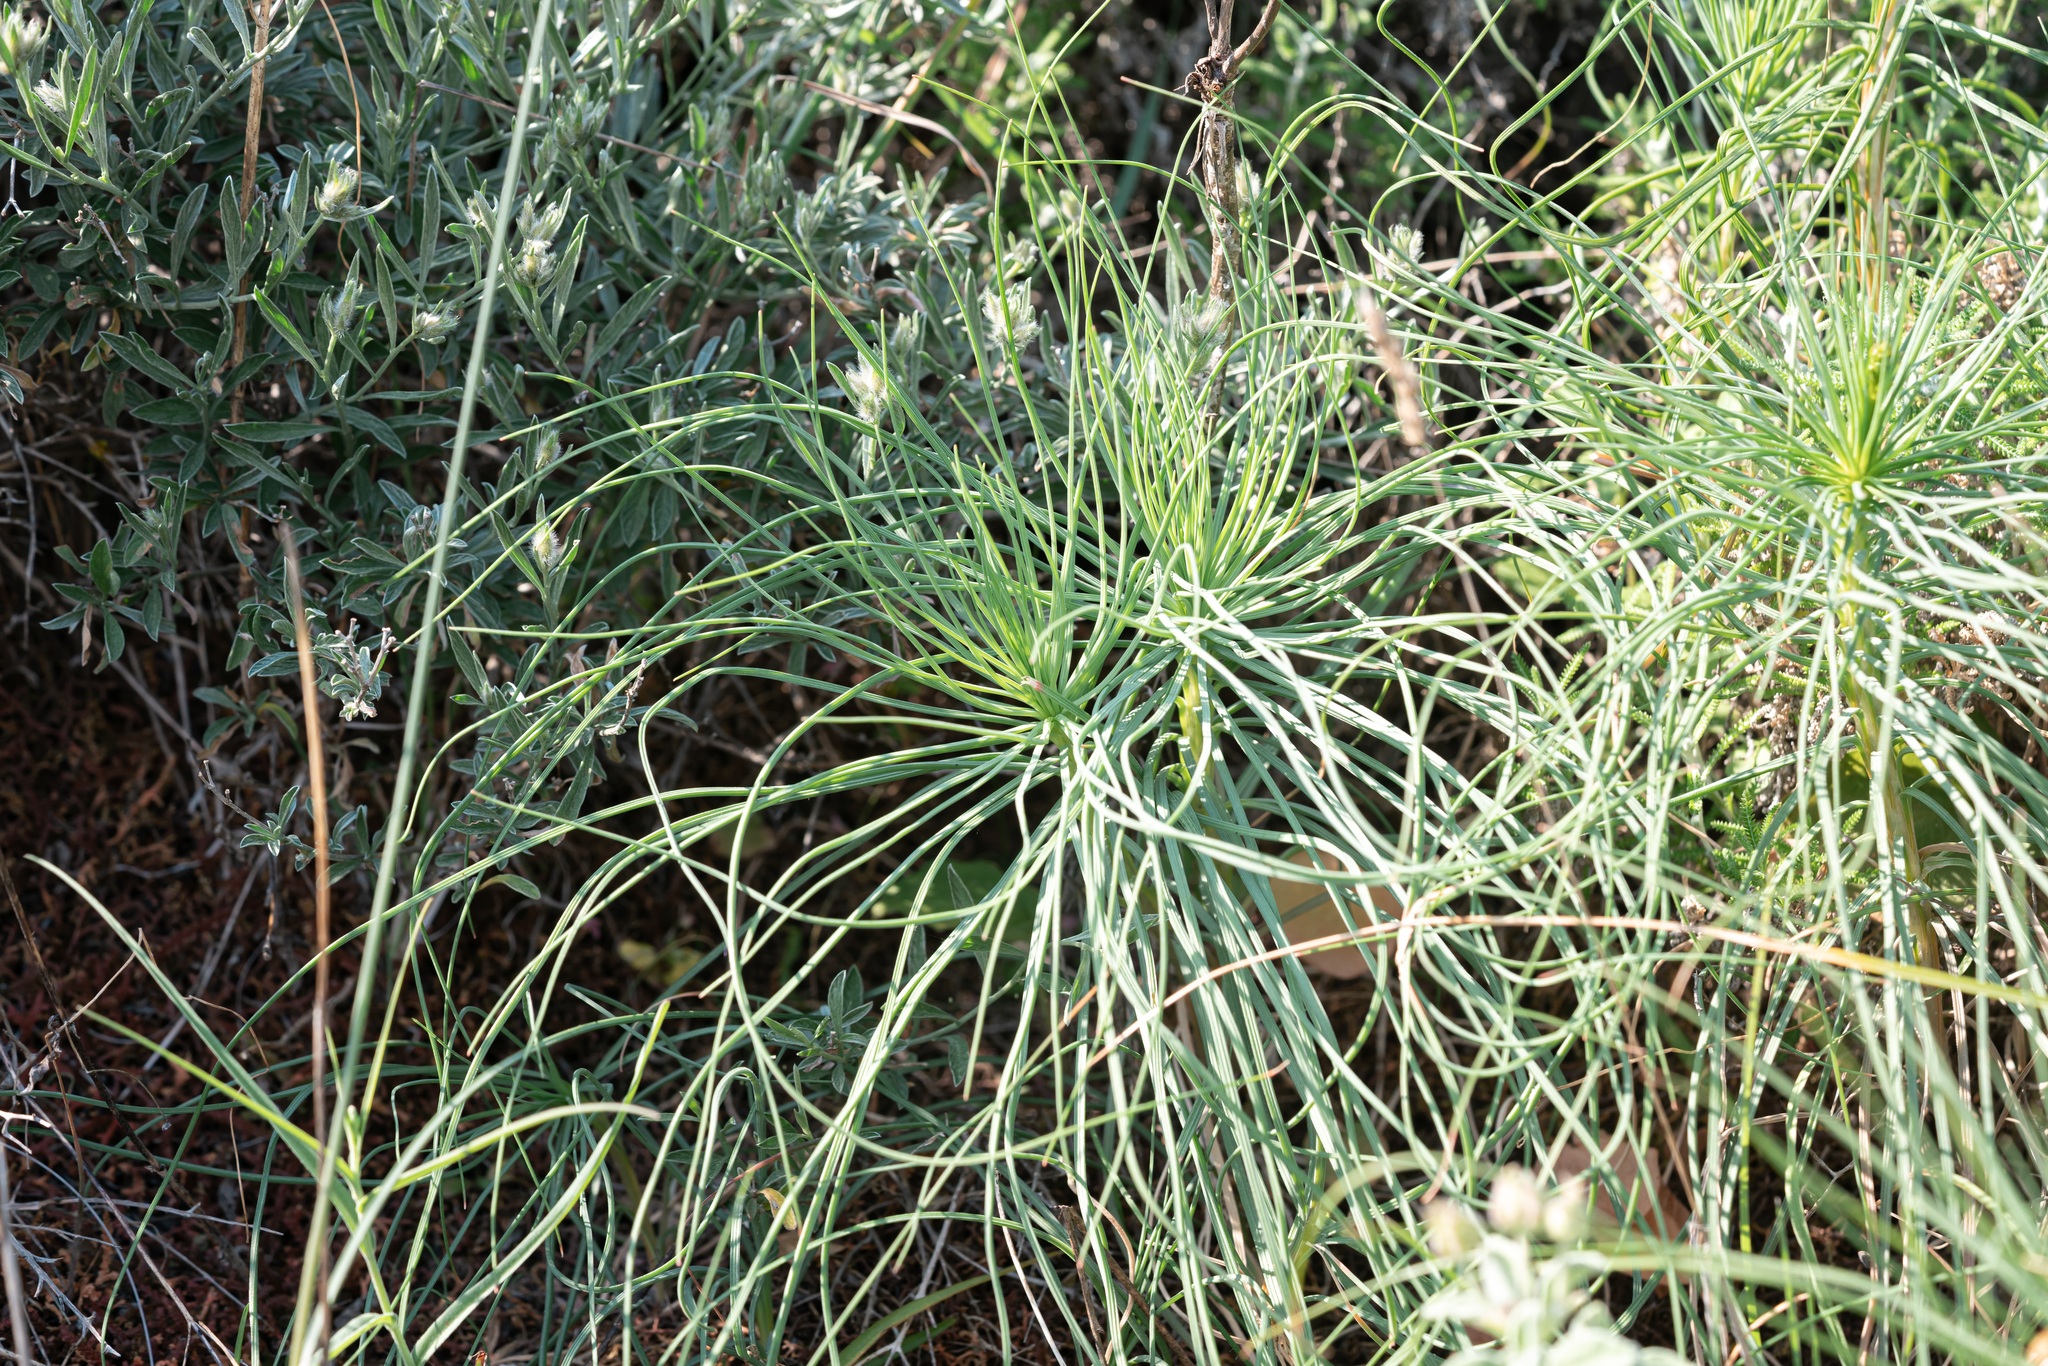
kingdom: Plantae
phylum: Tracheophyta
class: Liliopsida
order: Asparagales
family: Asphodelaceae
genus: Asphodeline
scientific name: Asphodeline liburnica
